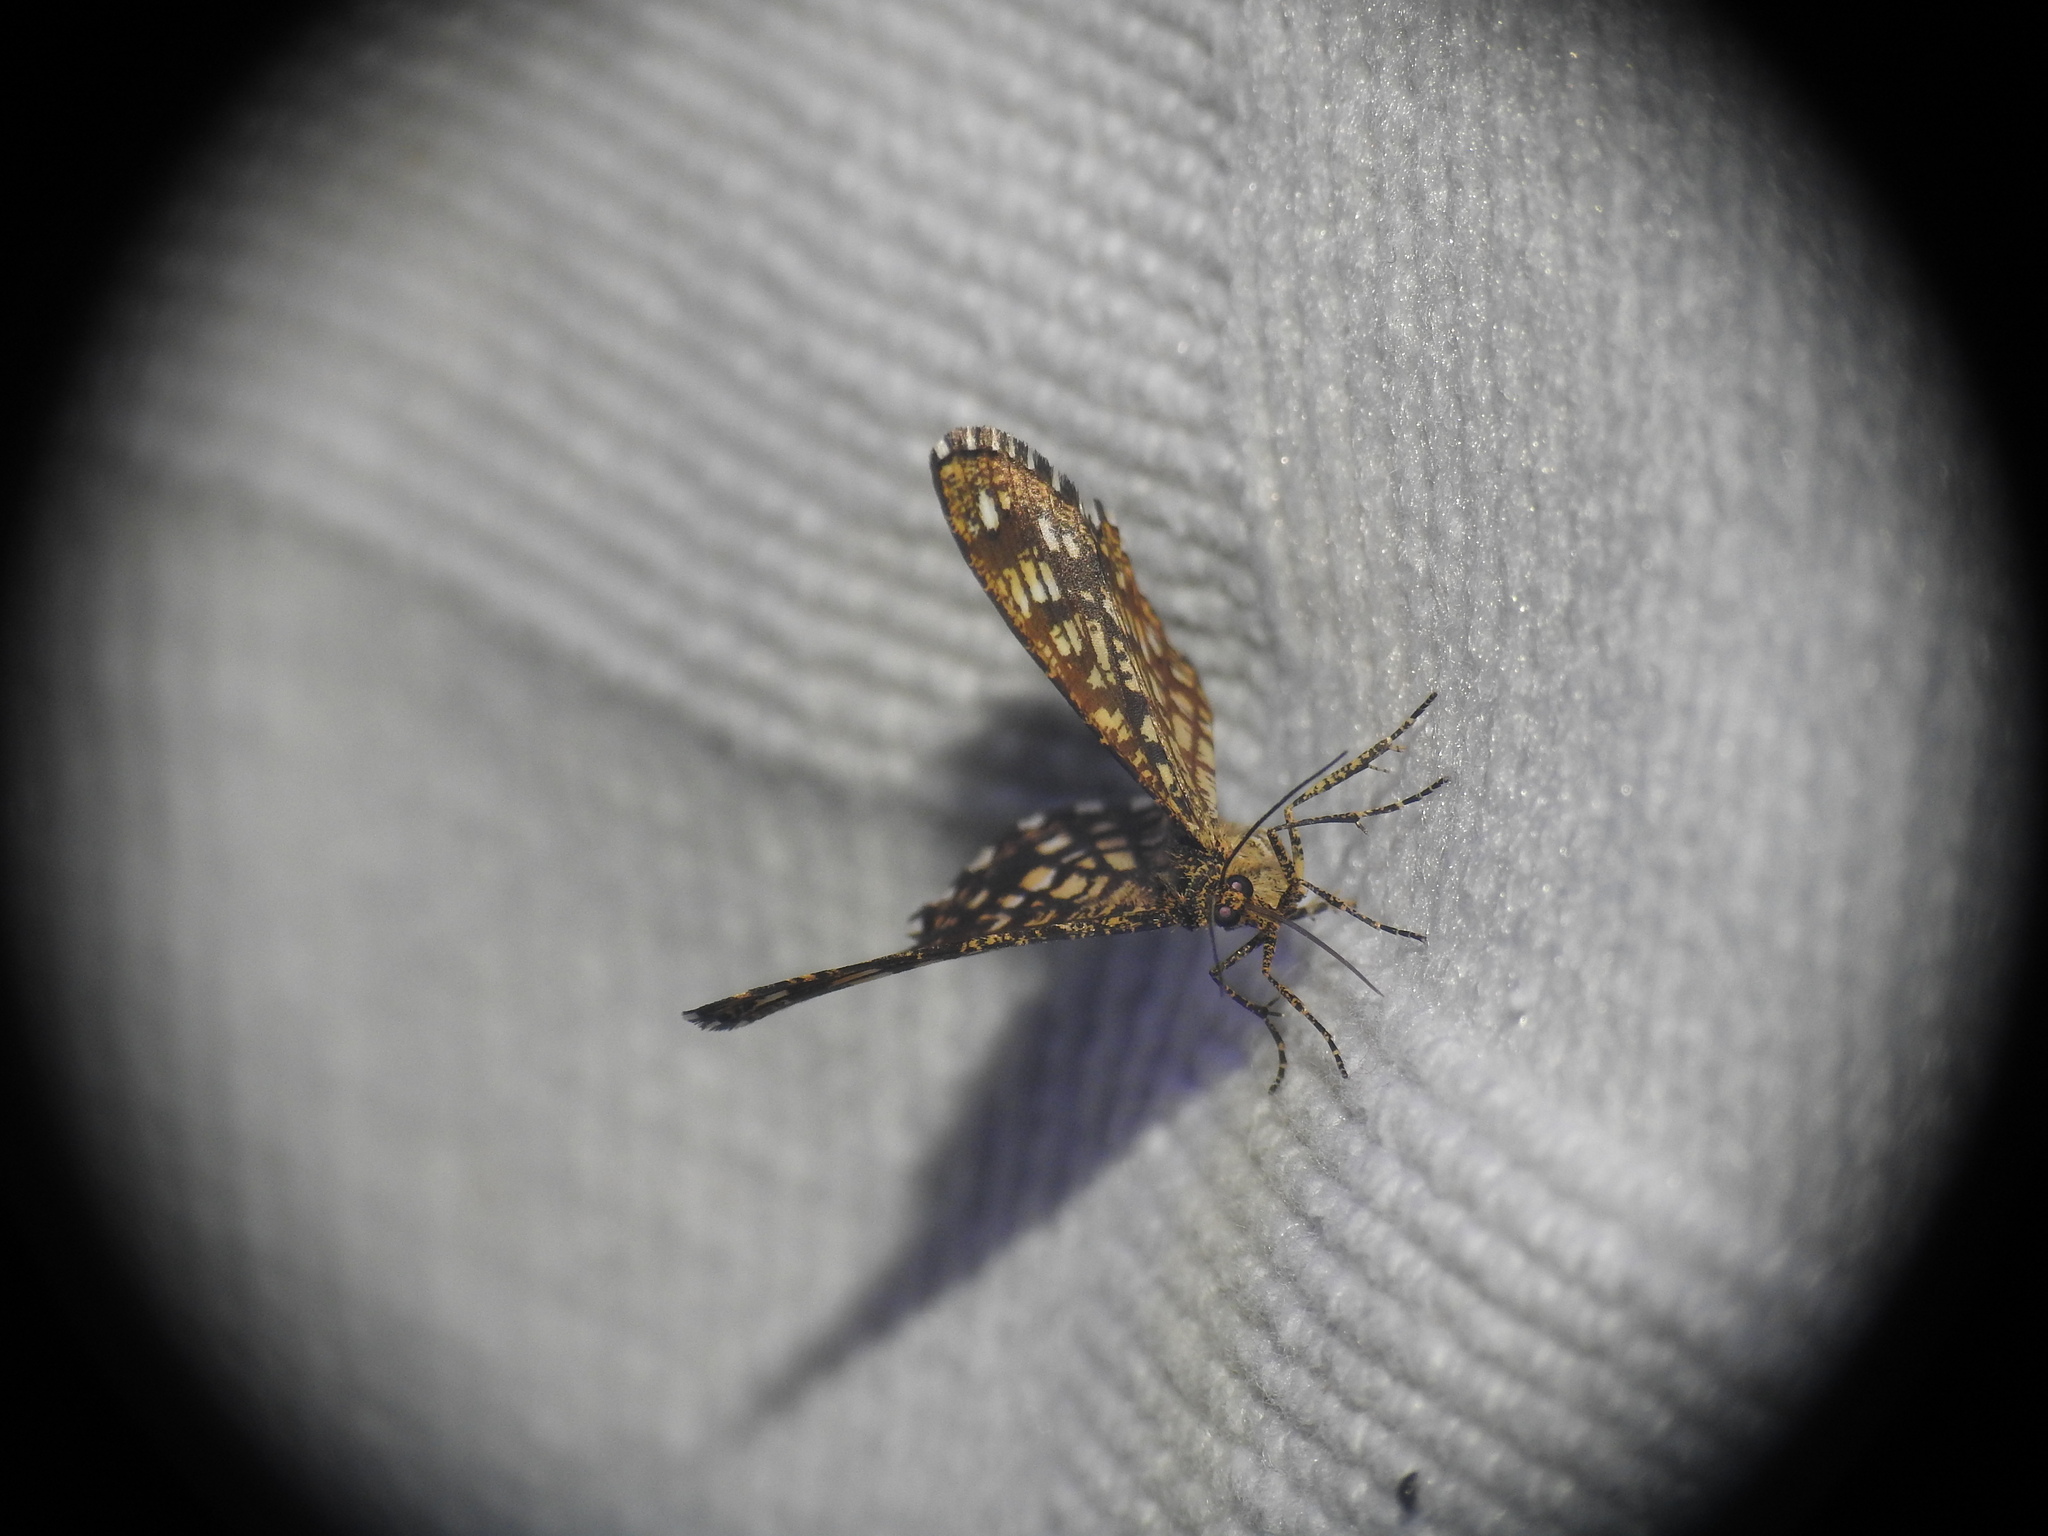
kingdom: Animalia
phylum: Arthropoda
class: Insecta
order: Lepidoptera
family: Geometridae
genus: Chiasmia
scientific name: Chiasmia clathrata
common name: Latticed heath
